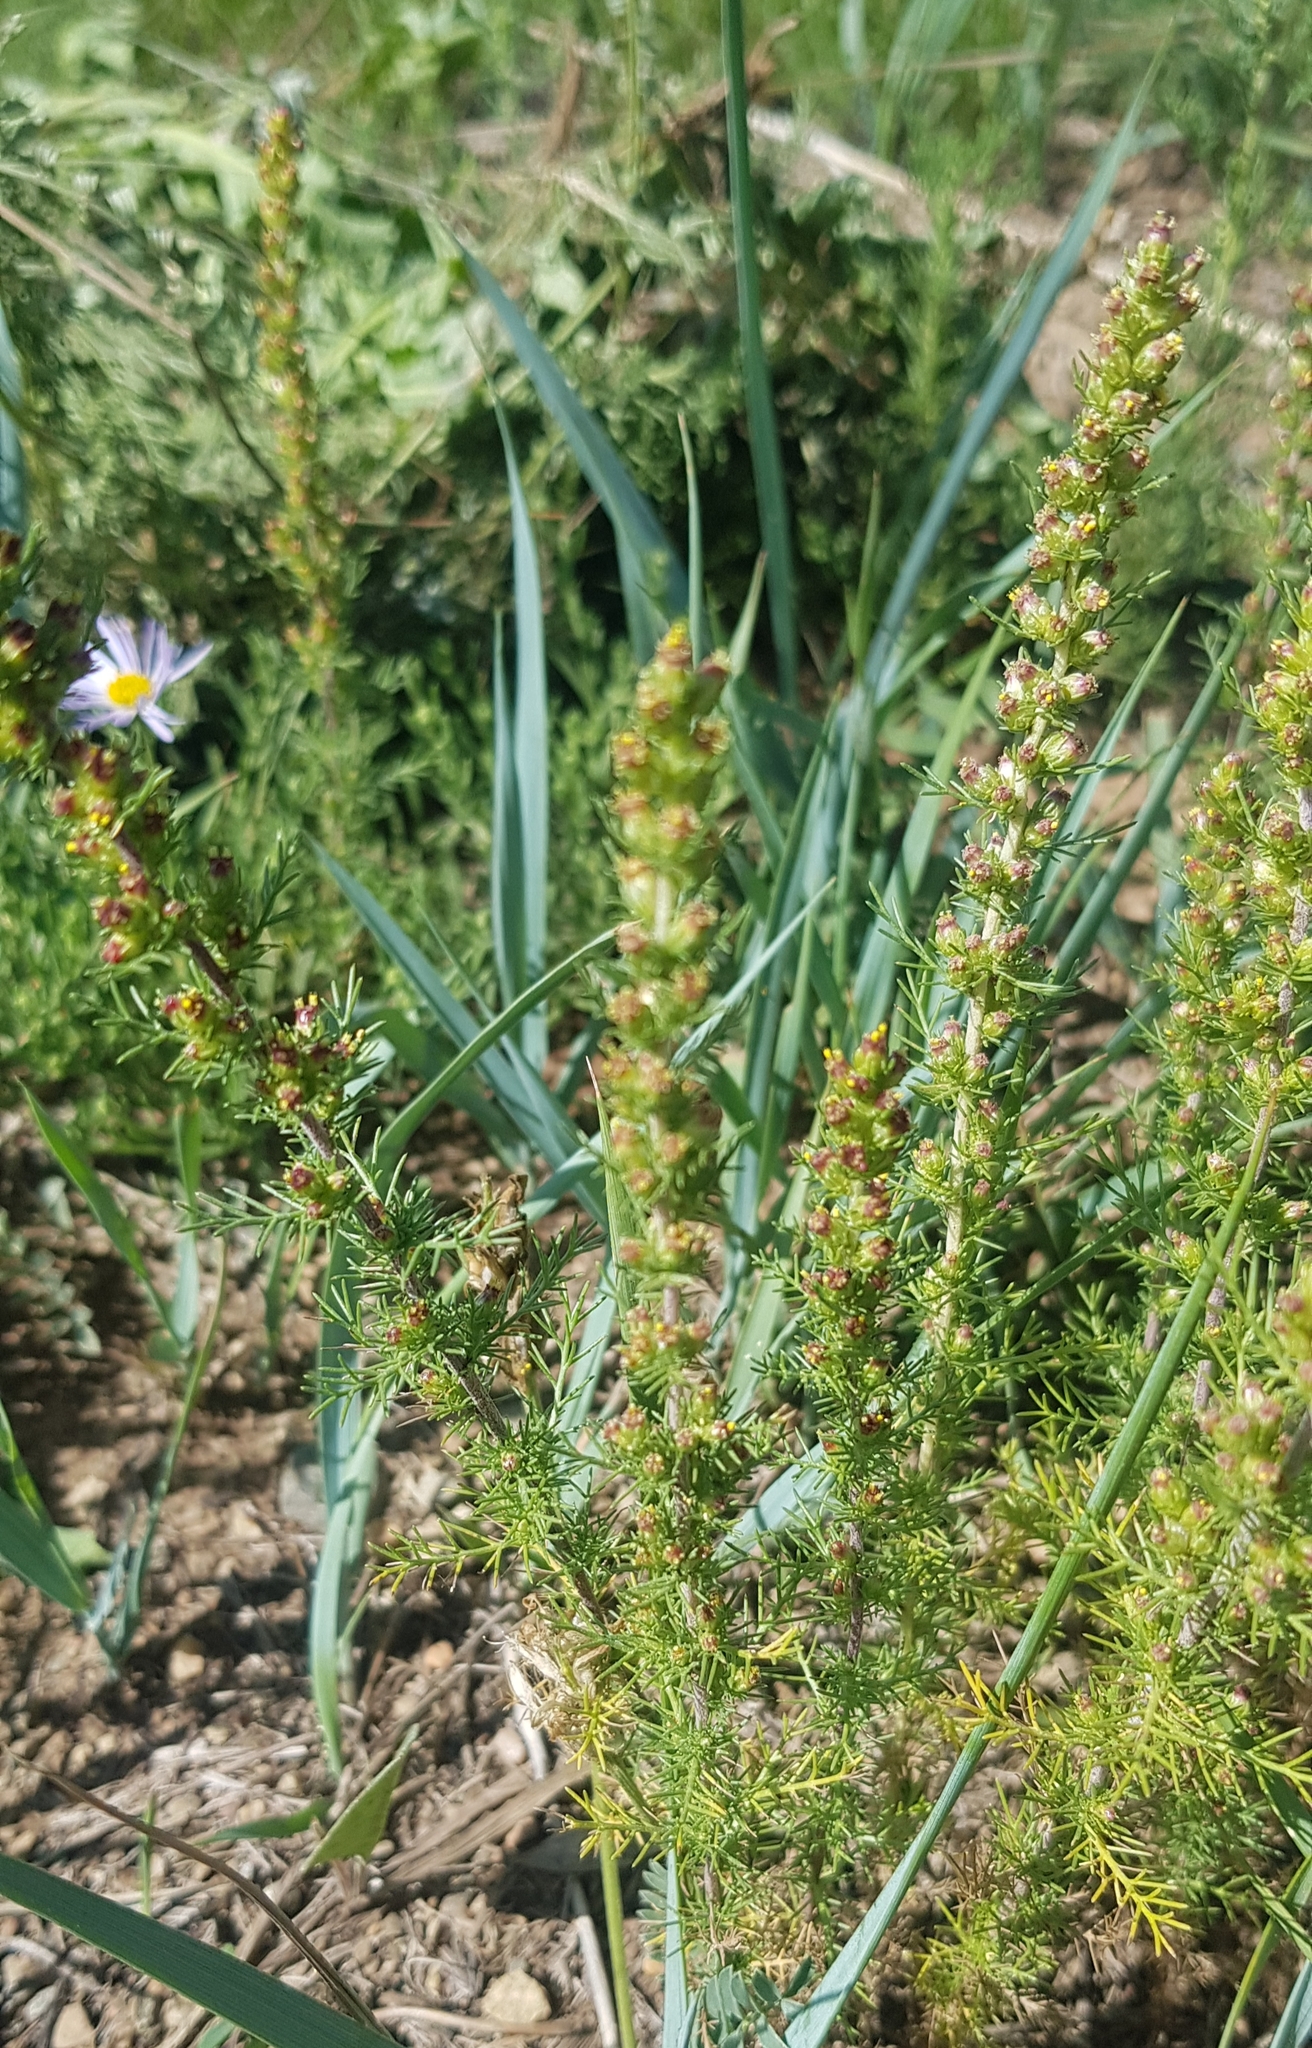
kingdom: Plantae
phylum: Tracheophyta
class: Magnoliopsida
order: Asterales
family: Asteraceae
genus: Neopallasia
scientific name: Neopallasia pectinata
